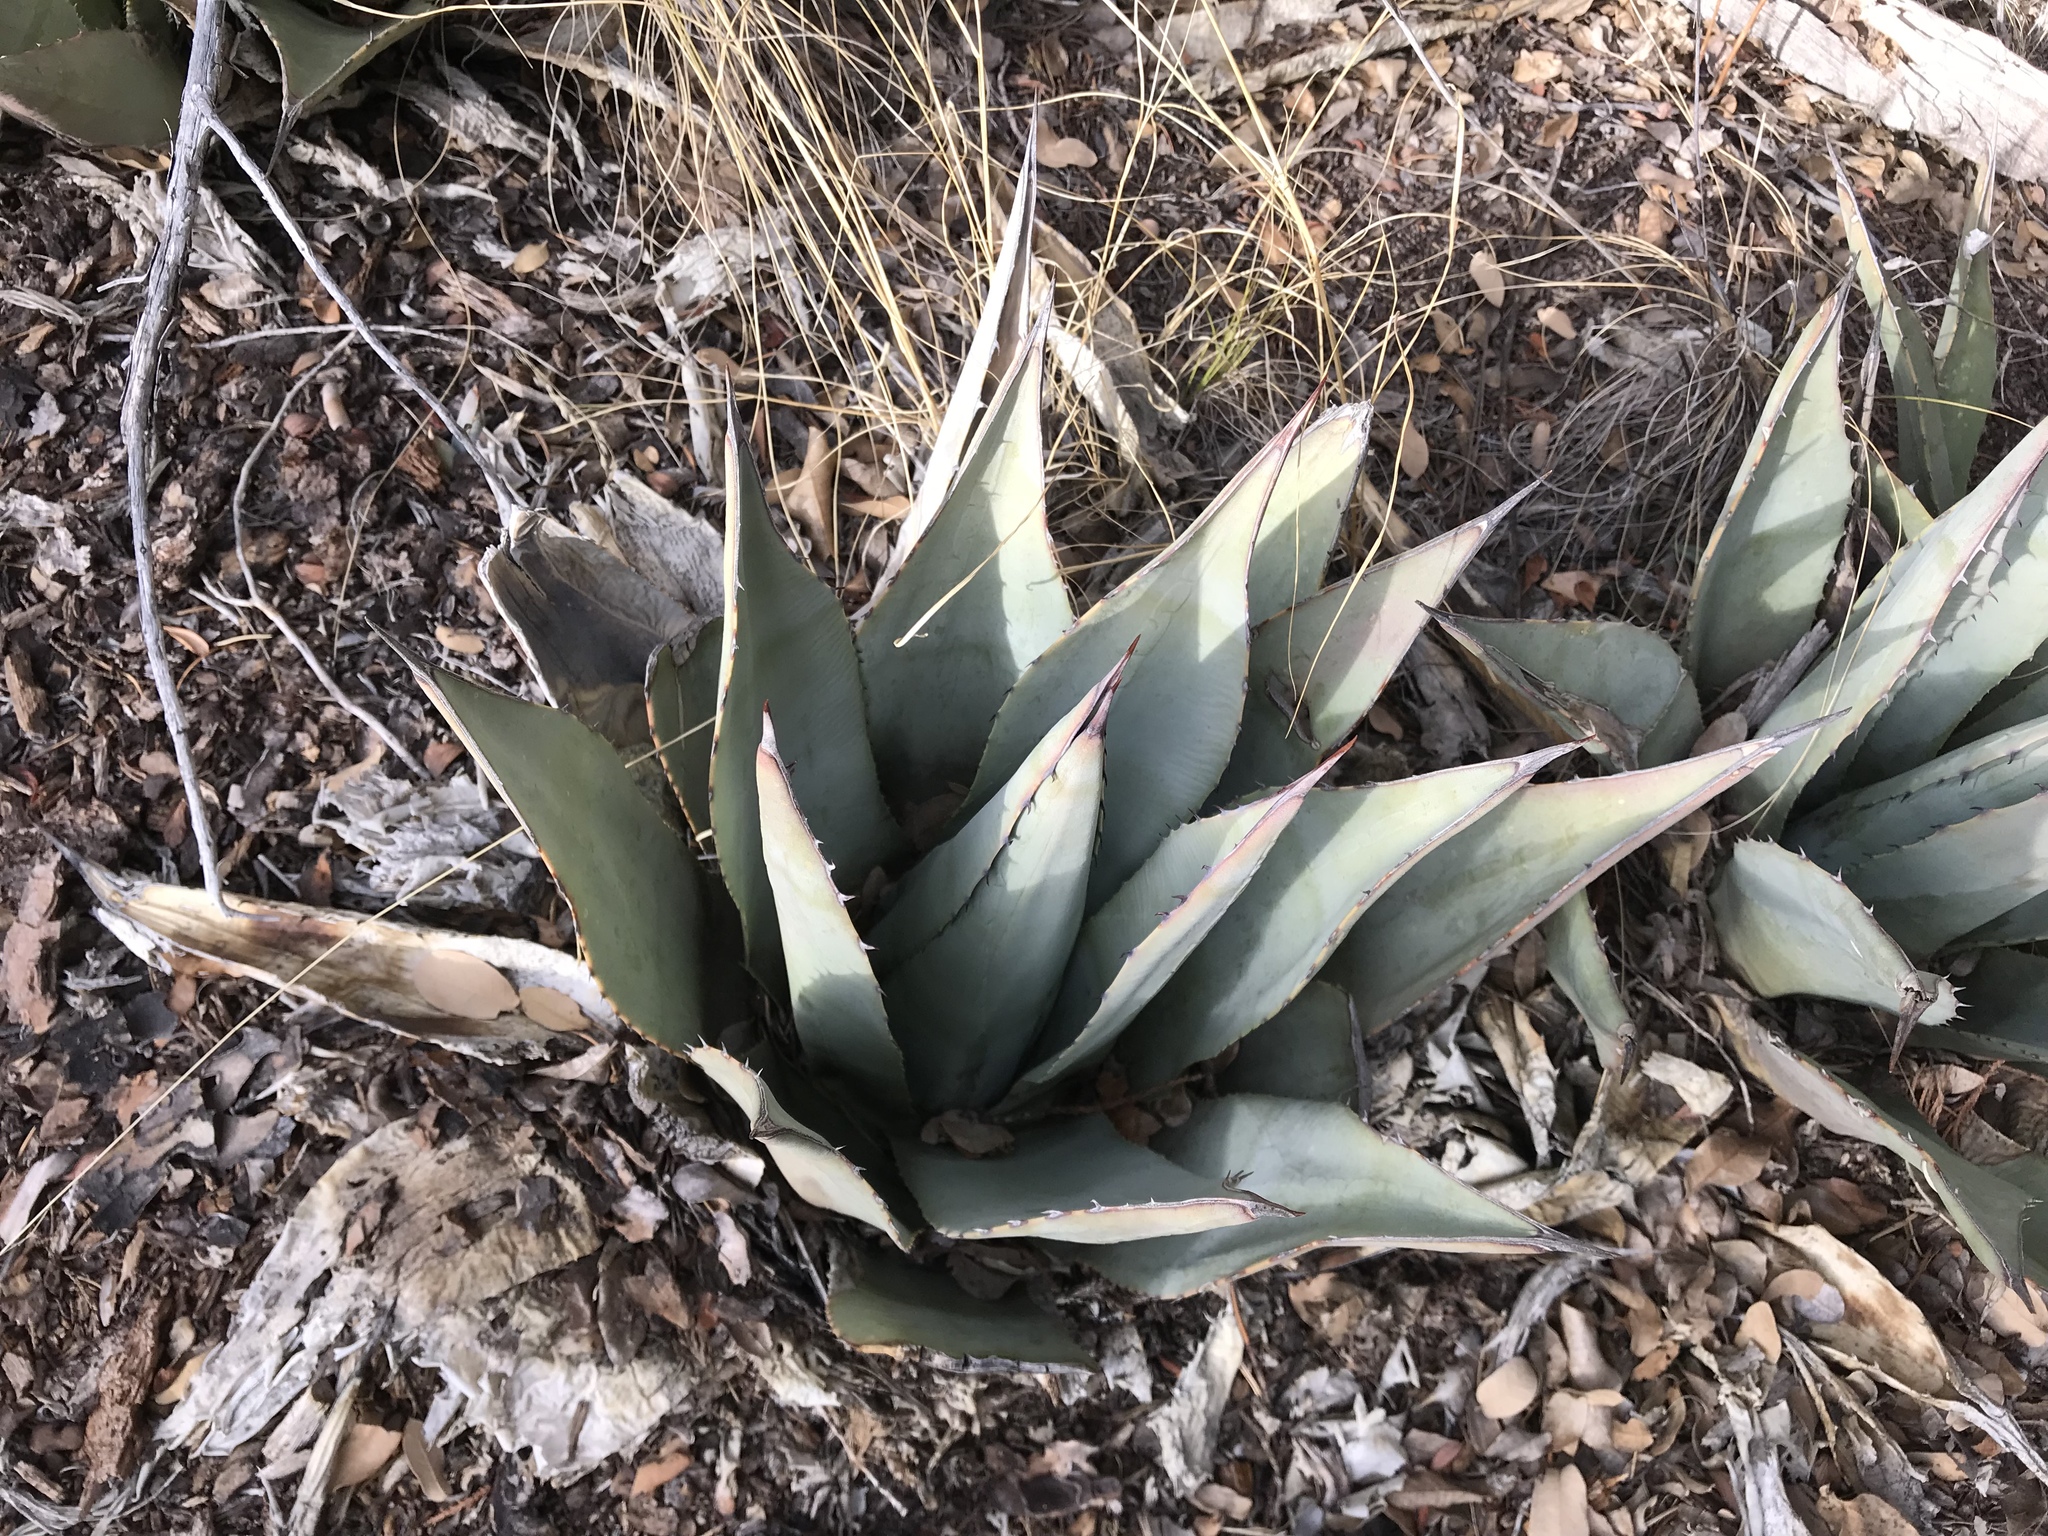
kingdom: Plantae
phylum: Tracheophyta
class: Liliopsida
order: Asparagales
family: Asparagaceae
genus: Agave
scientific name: Agave parryi
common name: Parry's agave
